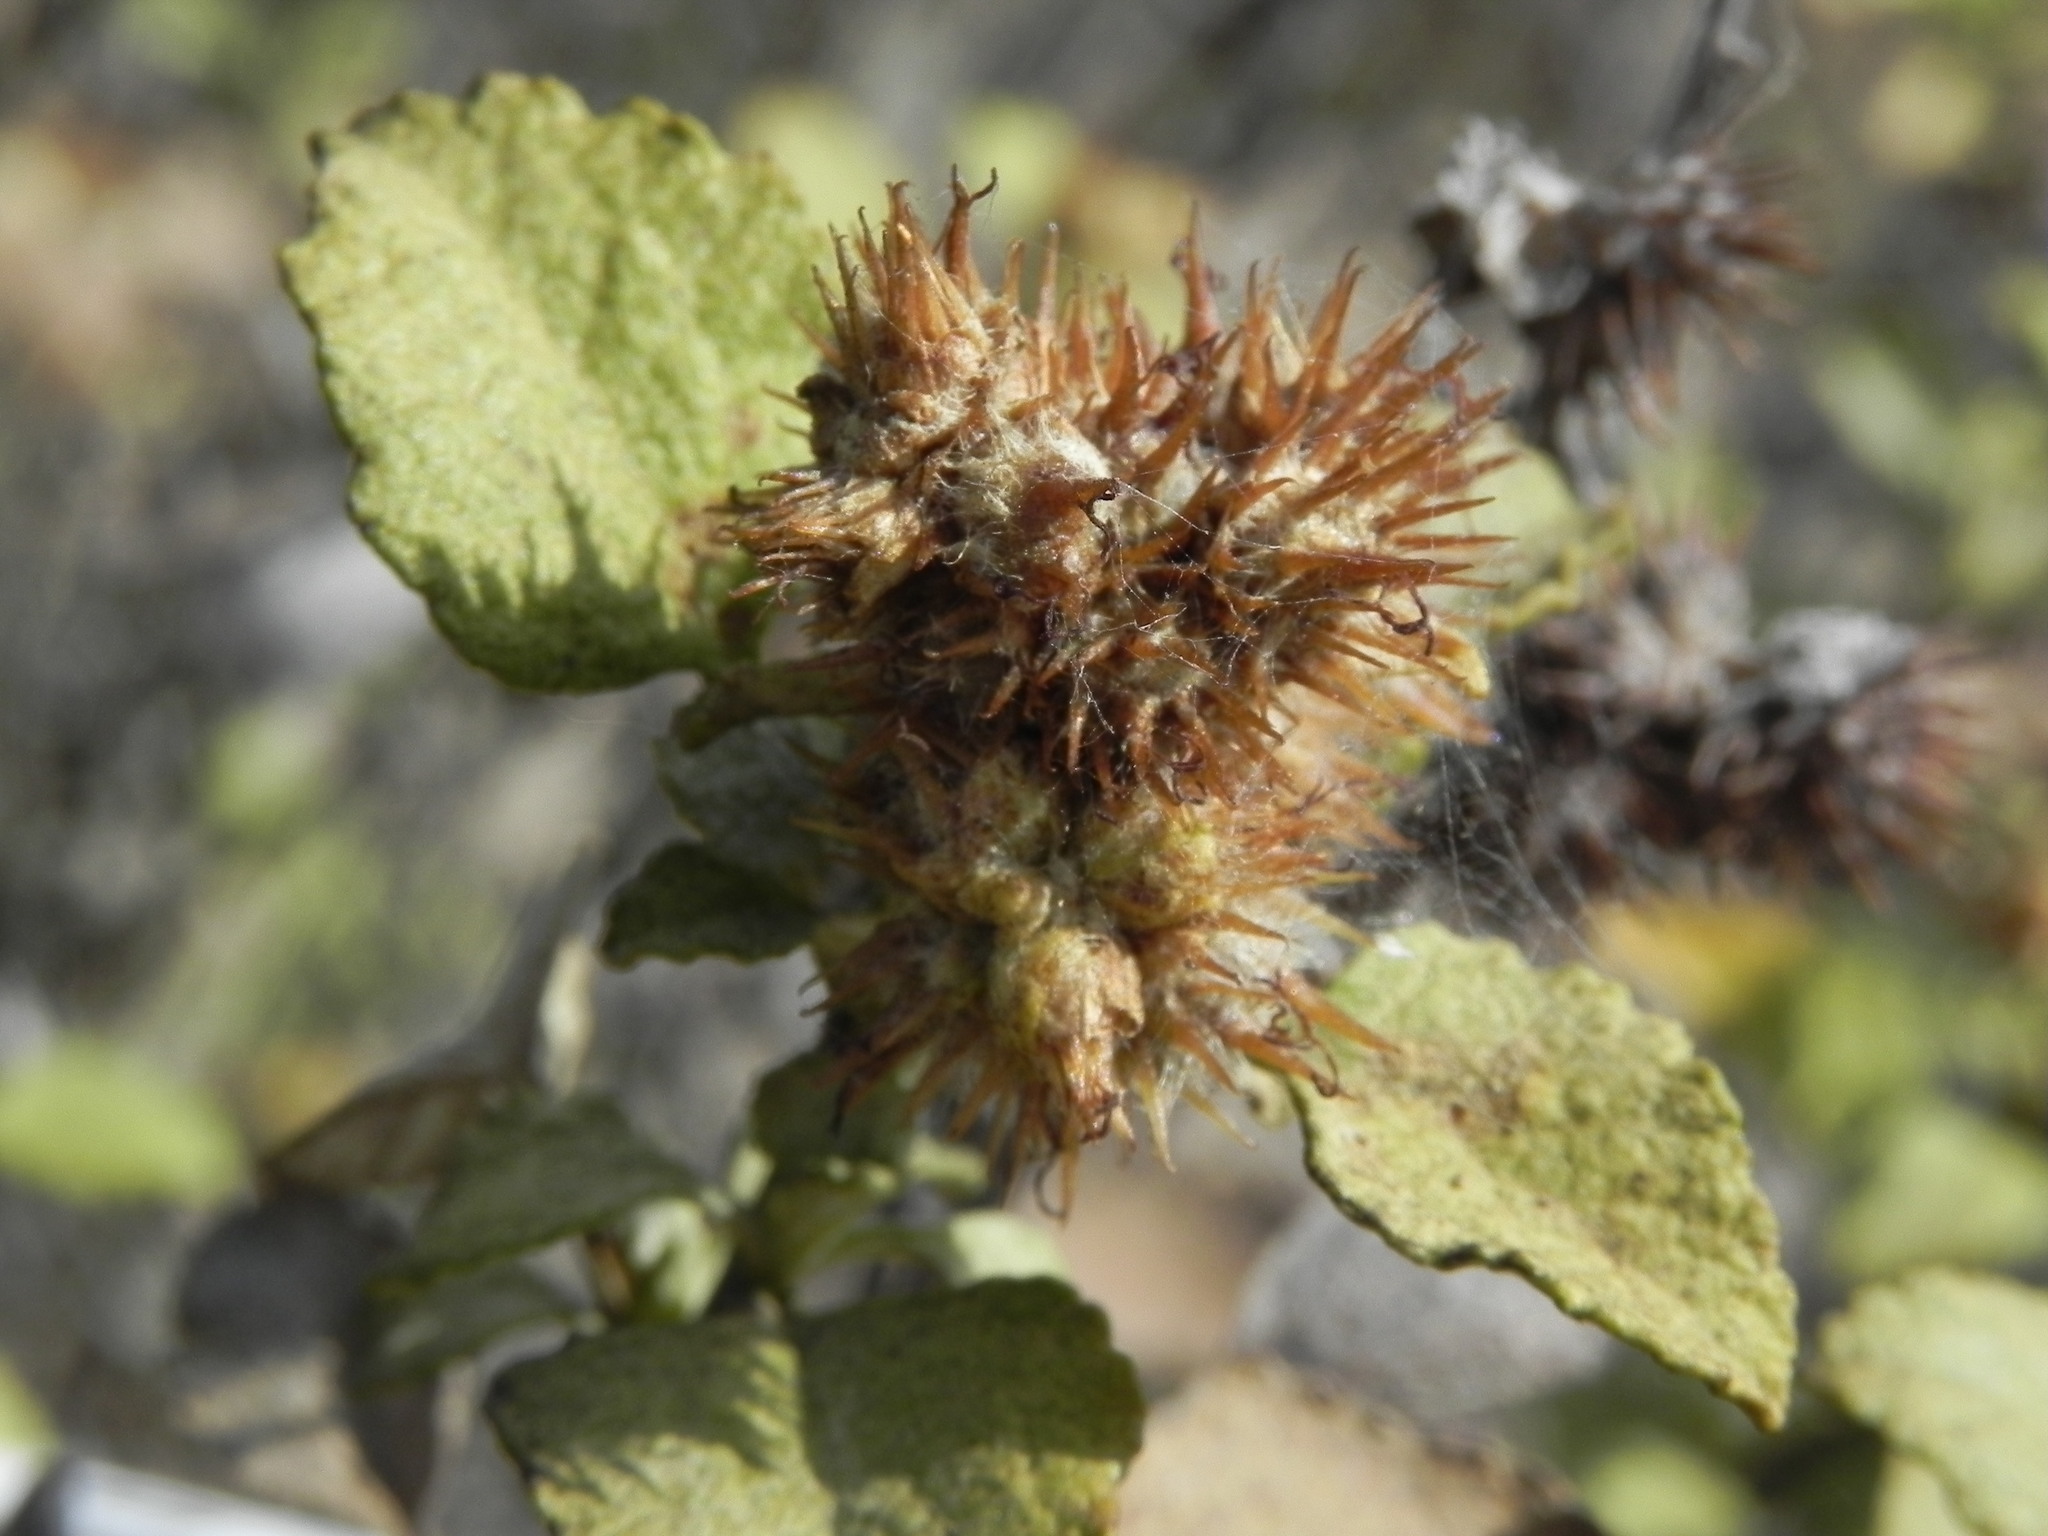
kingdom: Plantae
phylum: Tracheophyta
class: Magnoliopsida
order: Asterales
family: Asteraceae
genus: Ambrosia
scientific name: Ambrosia chenopodiifolia
